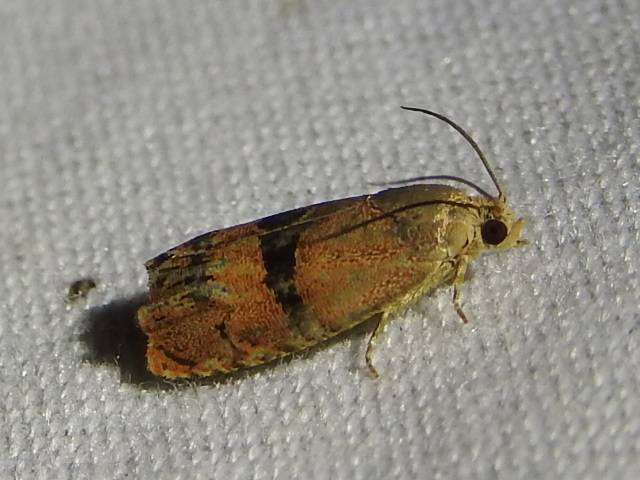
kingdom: Animalia
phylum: Arthropoda
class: Insecta
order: Lepidoptera
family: Tortricidae
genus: Cydia
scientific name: Cydia latiferreana
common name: Filbertworm moth
